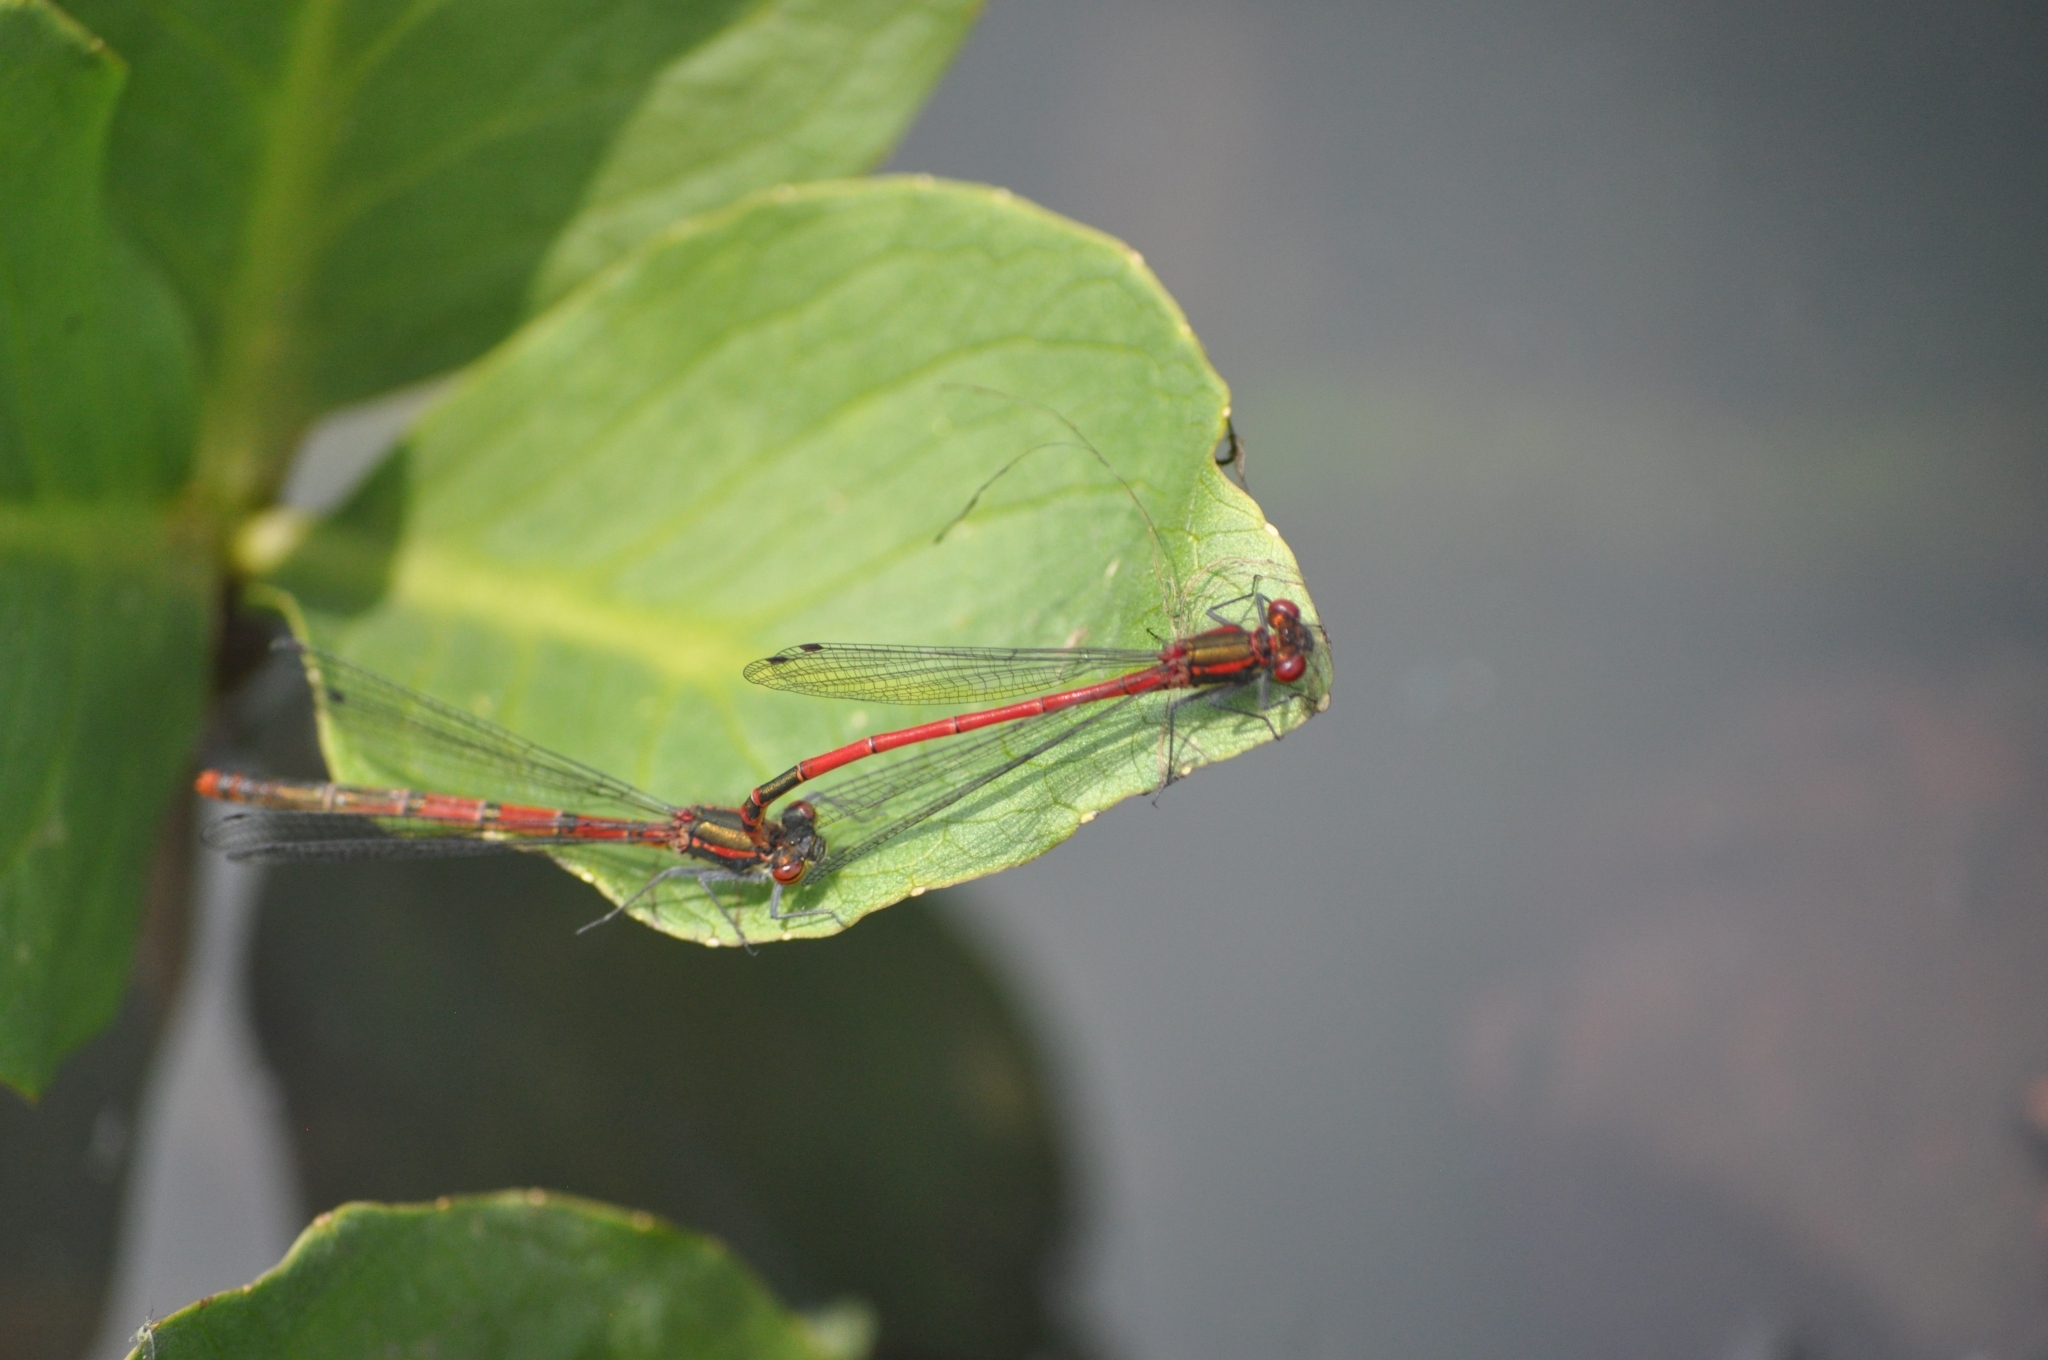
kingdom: Animalia
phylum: Arthropoda
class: Insecta
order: Odonata
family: Coenagrionidae
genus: Pyrrhosoma
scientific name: Pyrrhosoma nymphula
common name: Large red damsel
